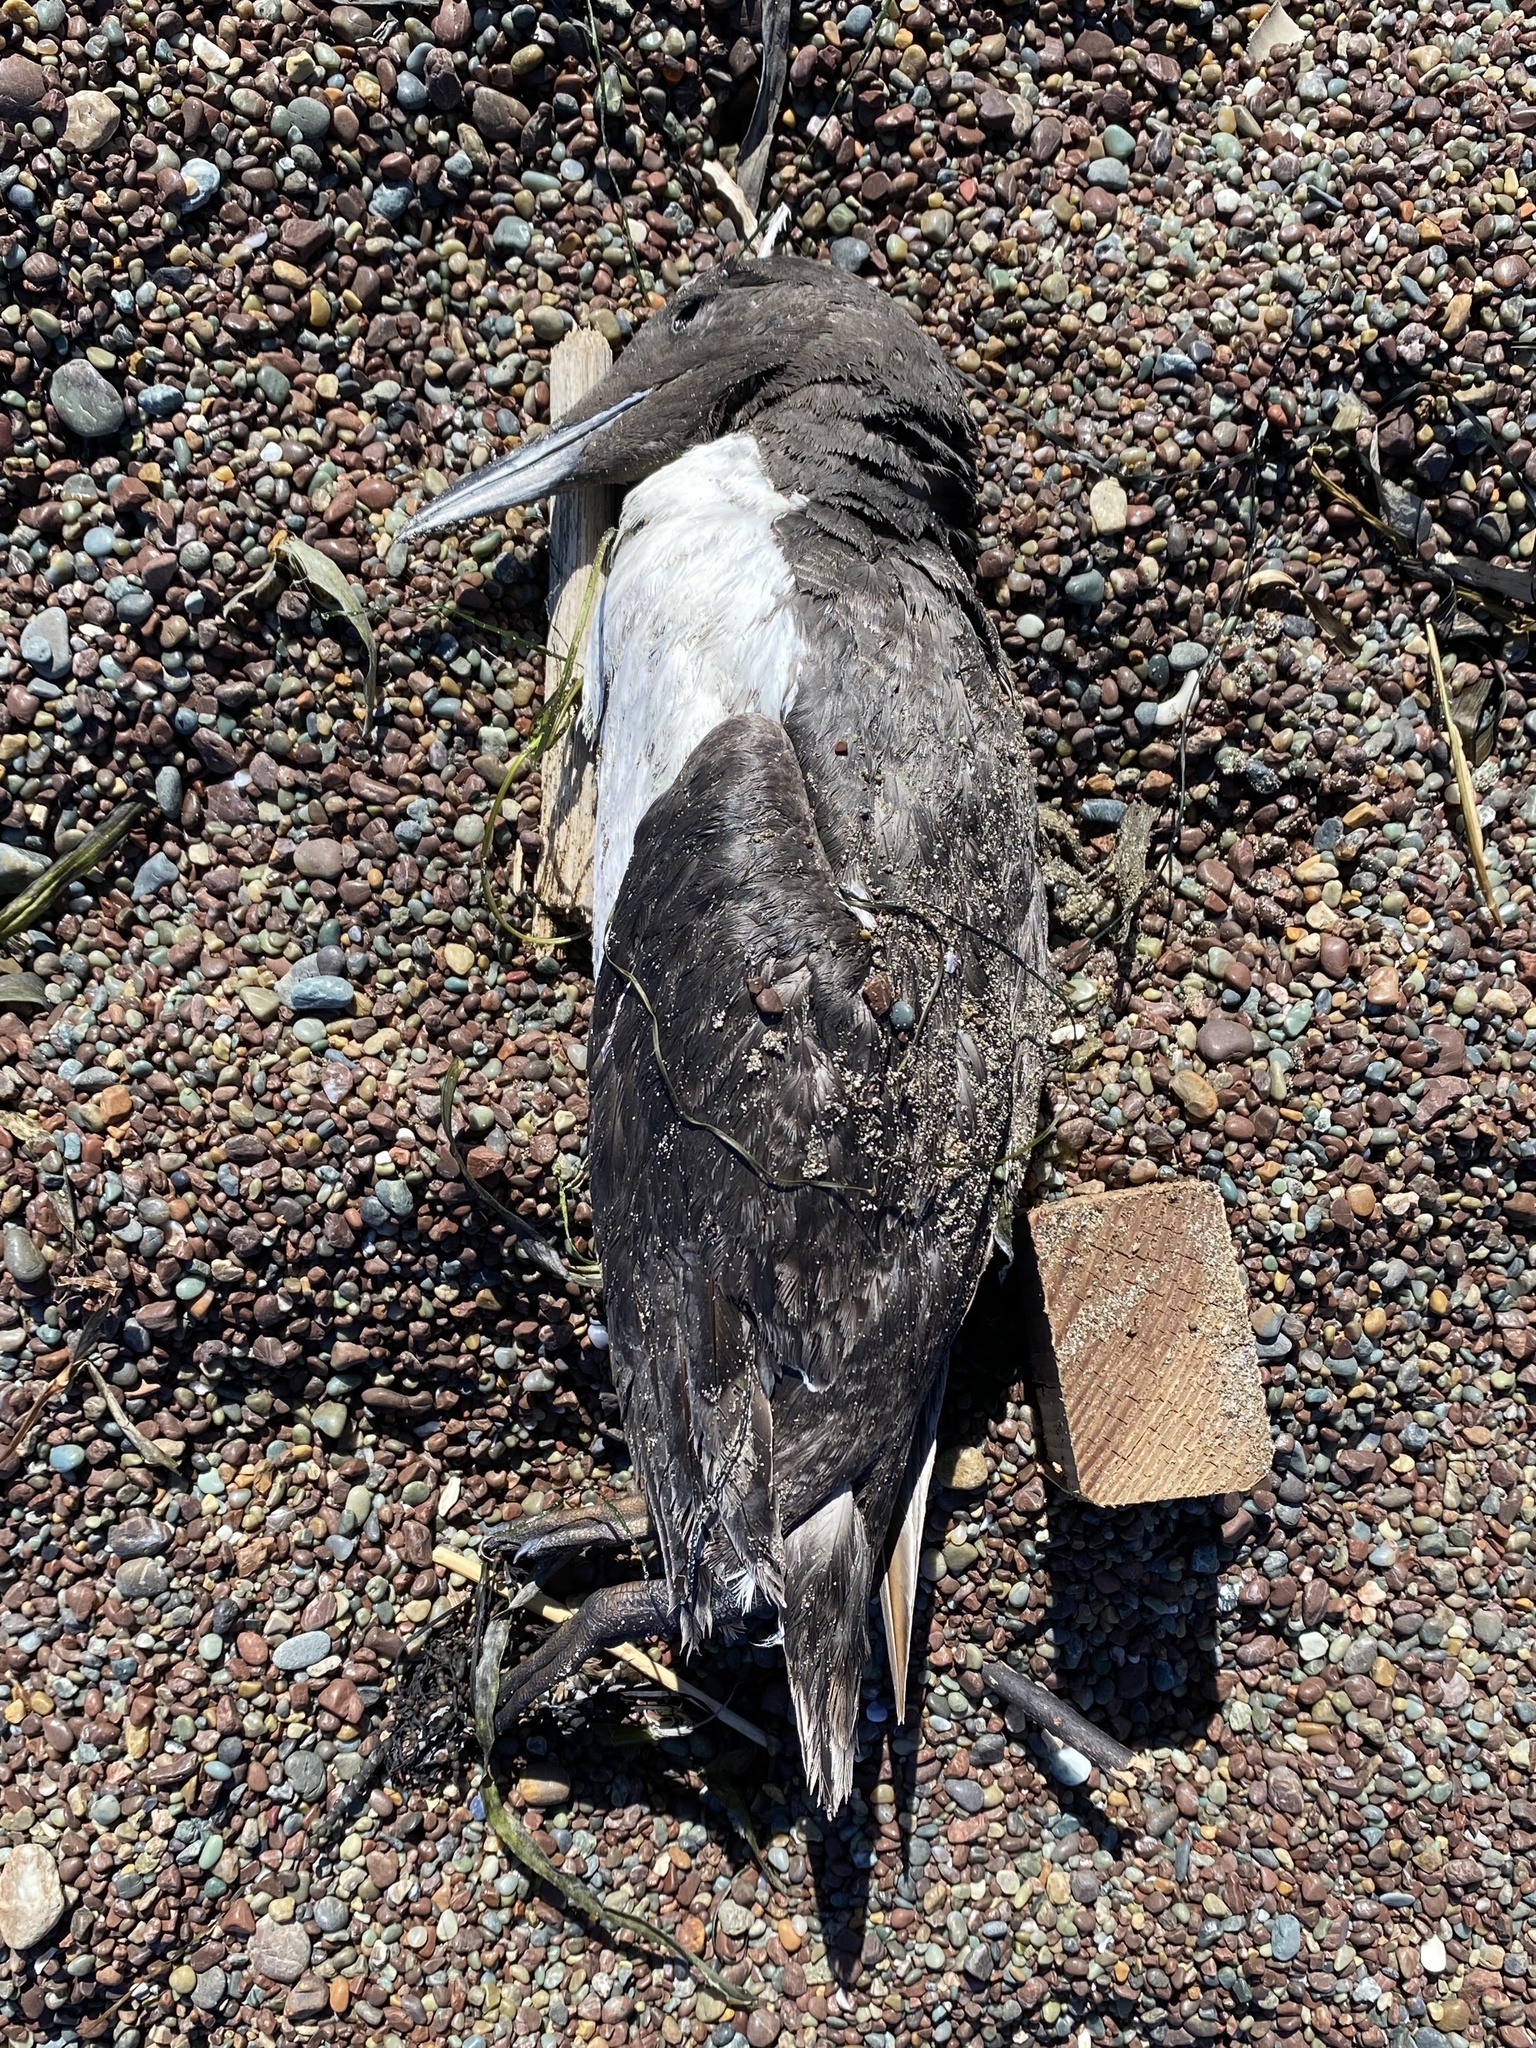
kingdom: Animalia
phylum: Chordata
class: Aves
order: Charadriiformes
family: Alcidae
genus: Uria
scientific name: Uria aalge
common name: Common murre
